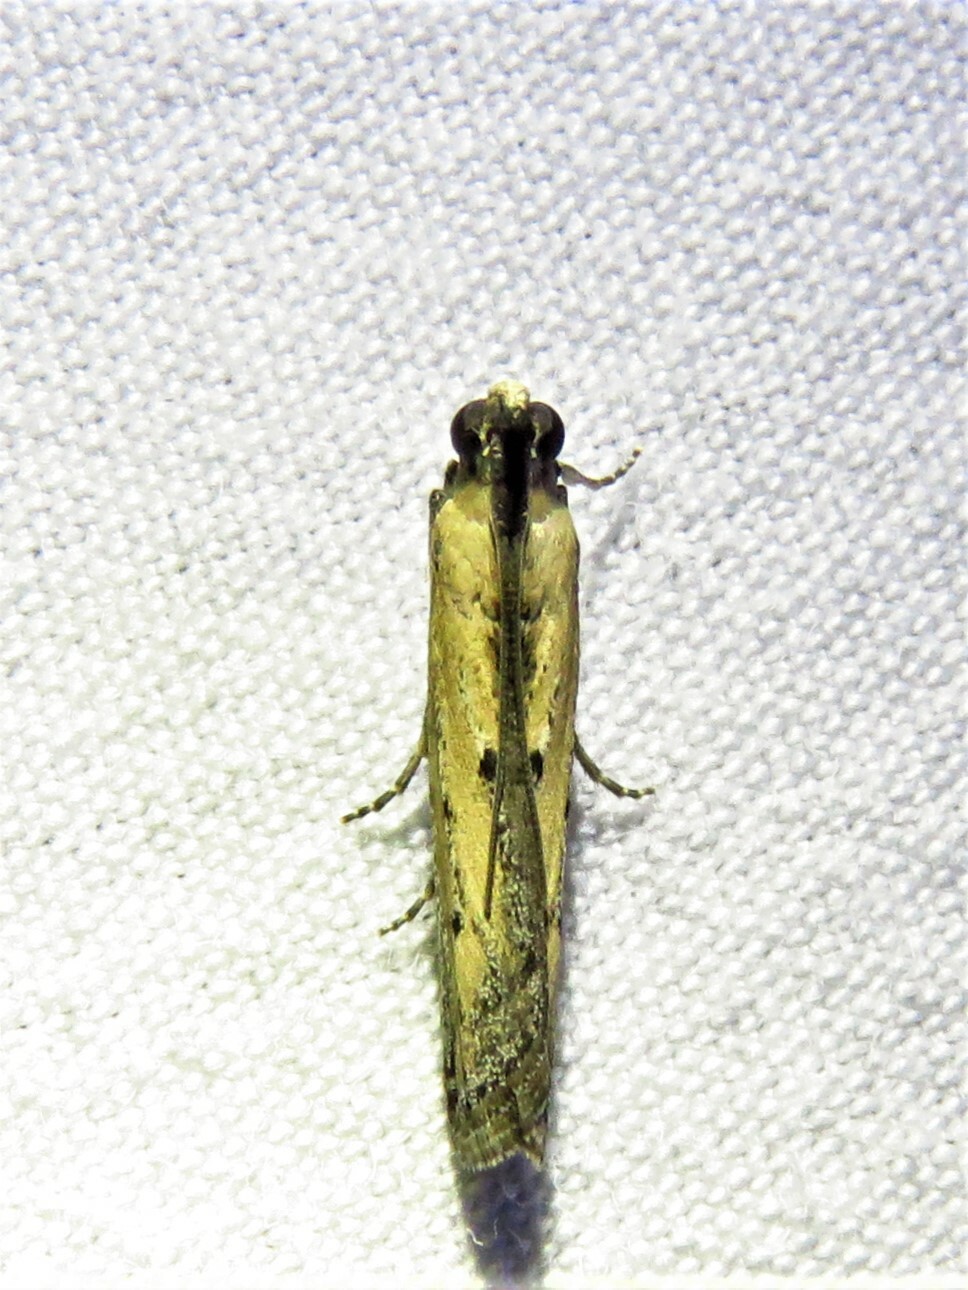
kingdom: Animalia
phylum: Arthropoda
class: Insecta
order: Lepidoptera
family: Pyralidae
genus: Elasmopalpus
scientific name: Elasmopalpus lignosella
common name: Lesser cornstalk borer
